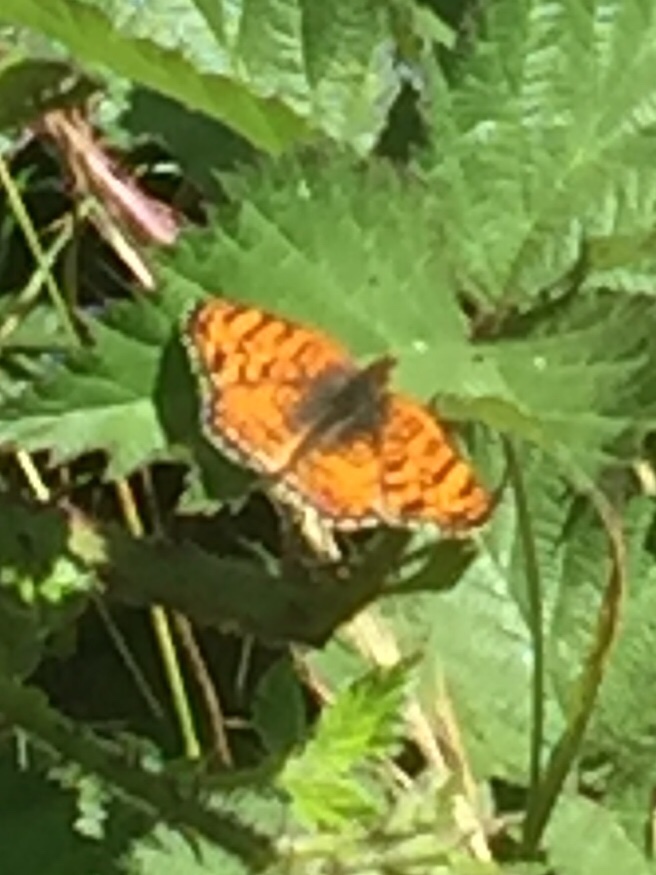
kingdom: Animalia
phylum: Arthropoda
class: Insecta
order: Lepidoptera
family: Nymphalidae
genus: Eresia
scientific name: Eresia aveyrona
